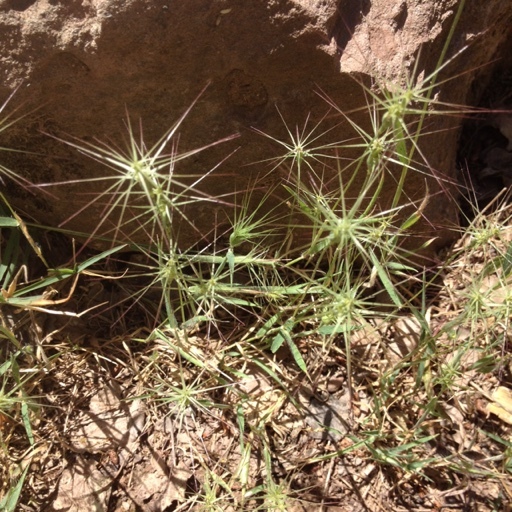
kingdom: Plantae
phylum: Tracheophyta
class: Liliopsida
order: Poales
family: Poaceae
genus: Aegilops
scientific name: Aegilops geniculata
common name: Ovate goat grass
